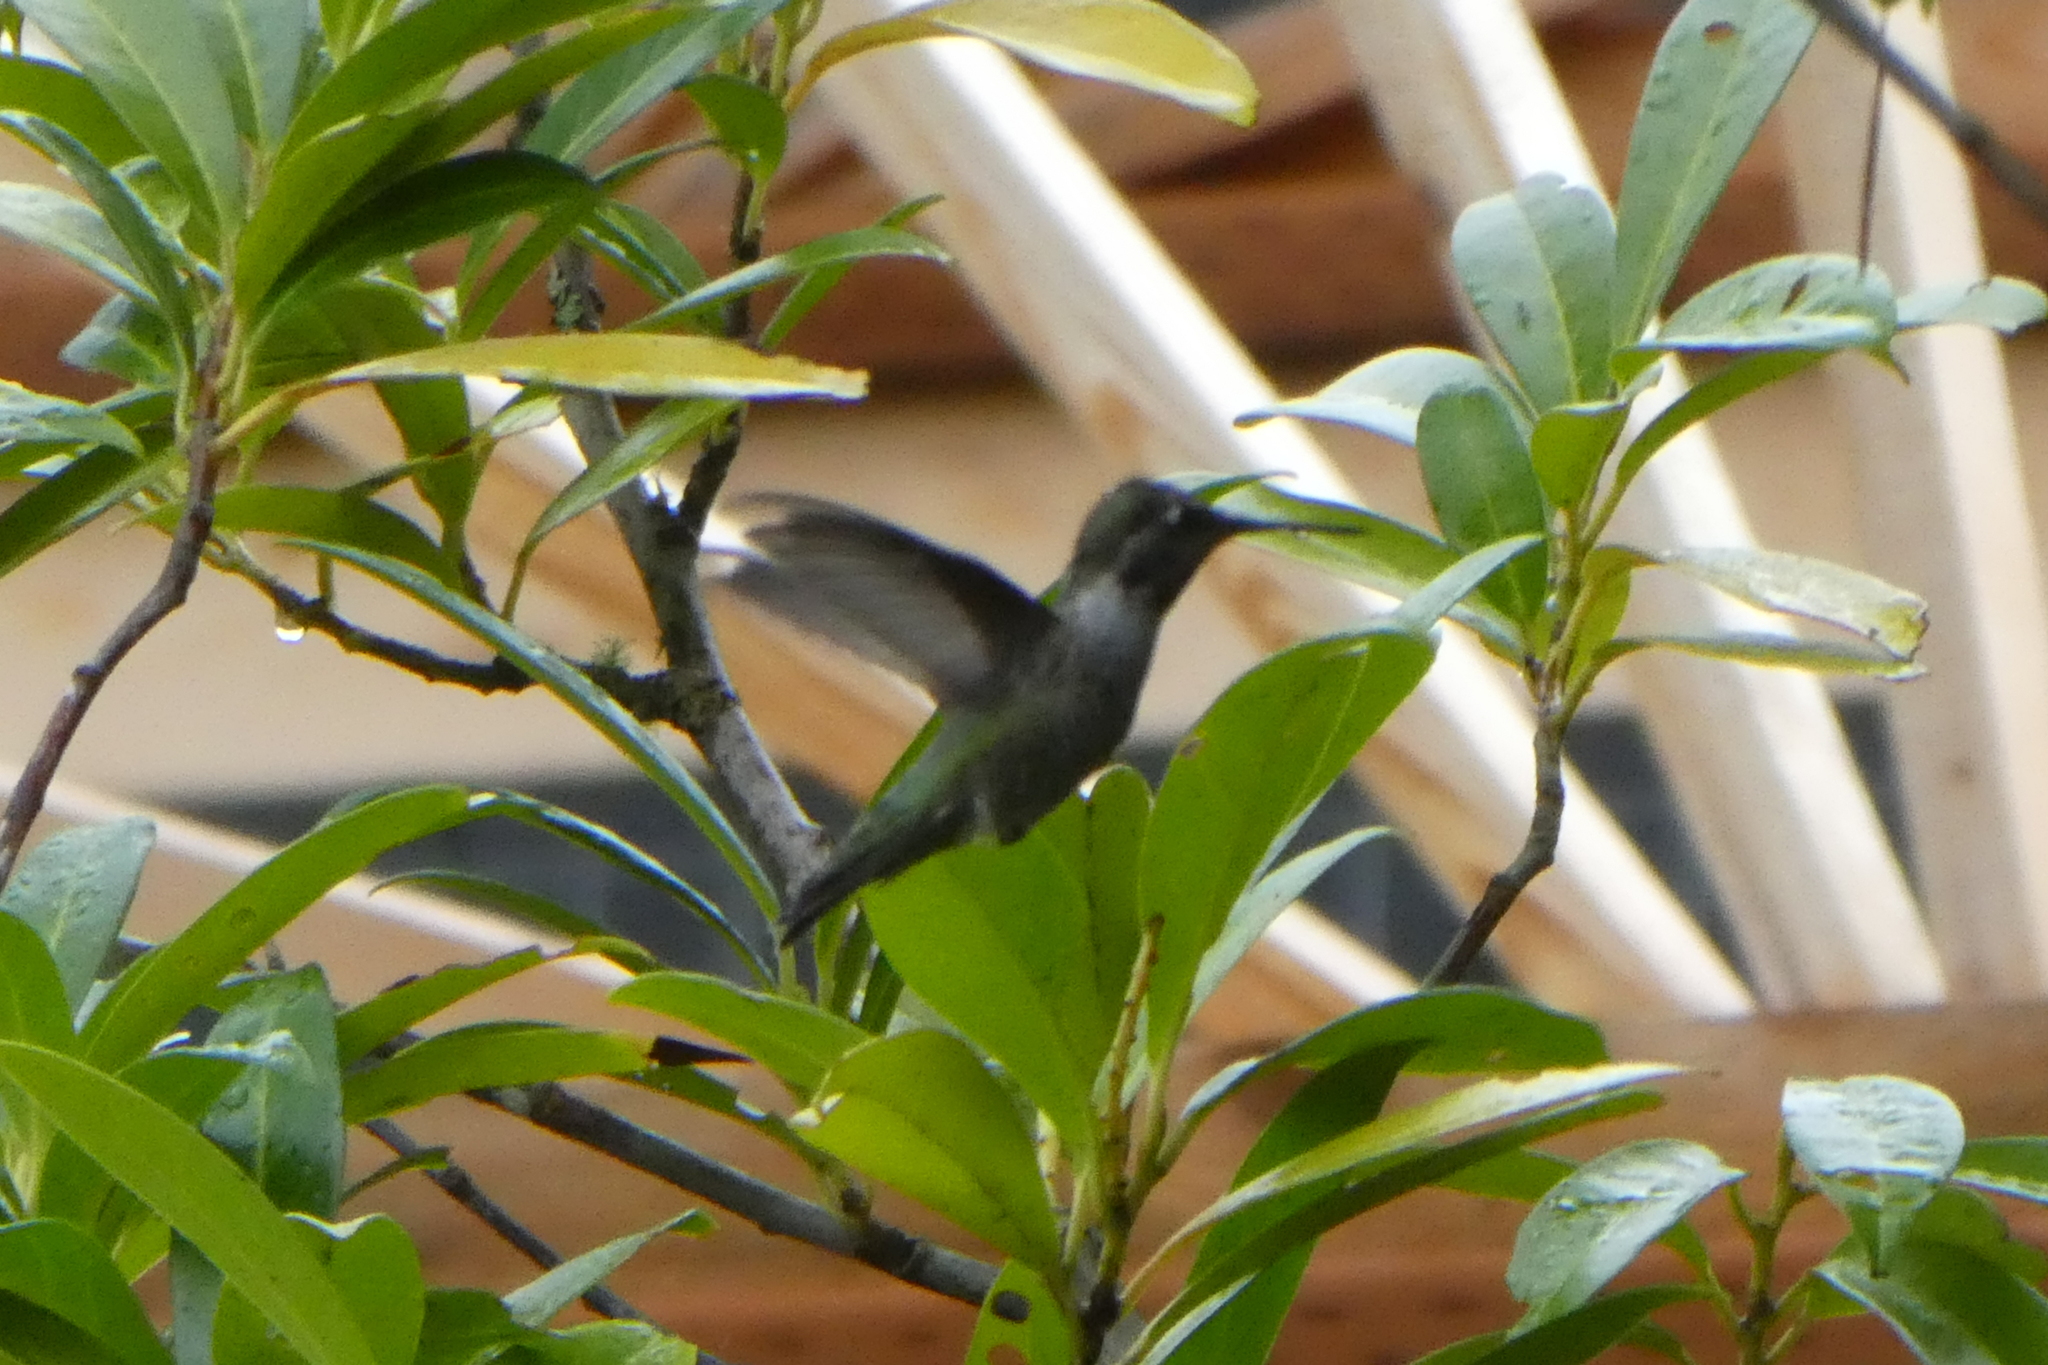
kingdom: Animalia
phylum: Chordata
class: Aves
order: Apodiformes
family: Trochilidae
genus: Calypte
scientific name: Calypte anna
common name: Anna's hummingbird
